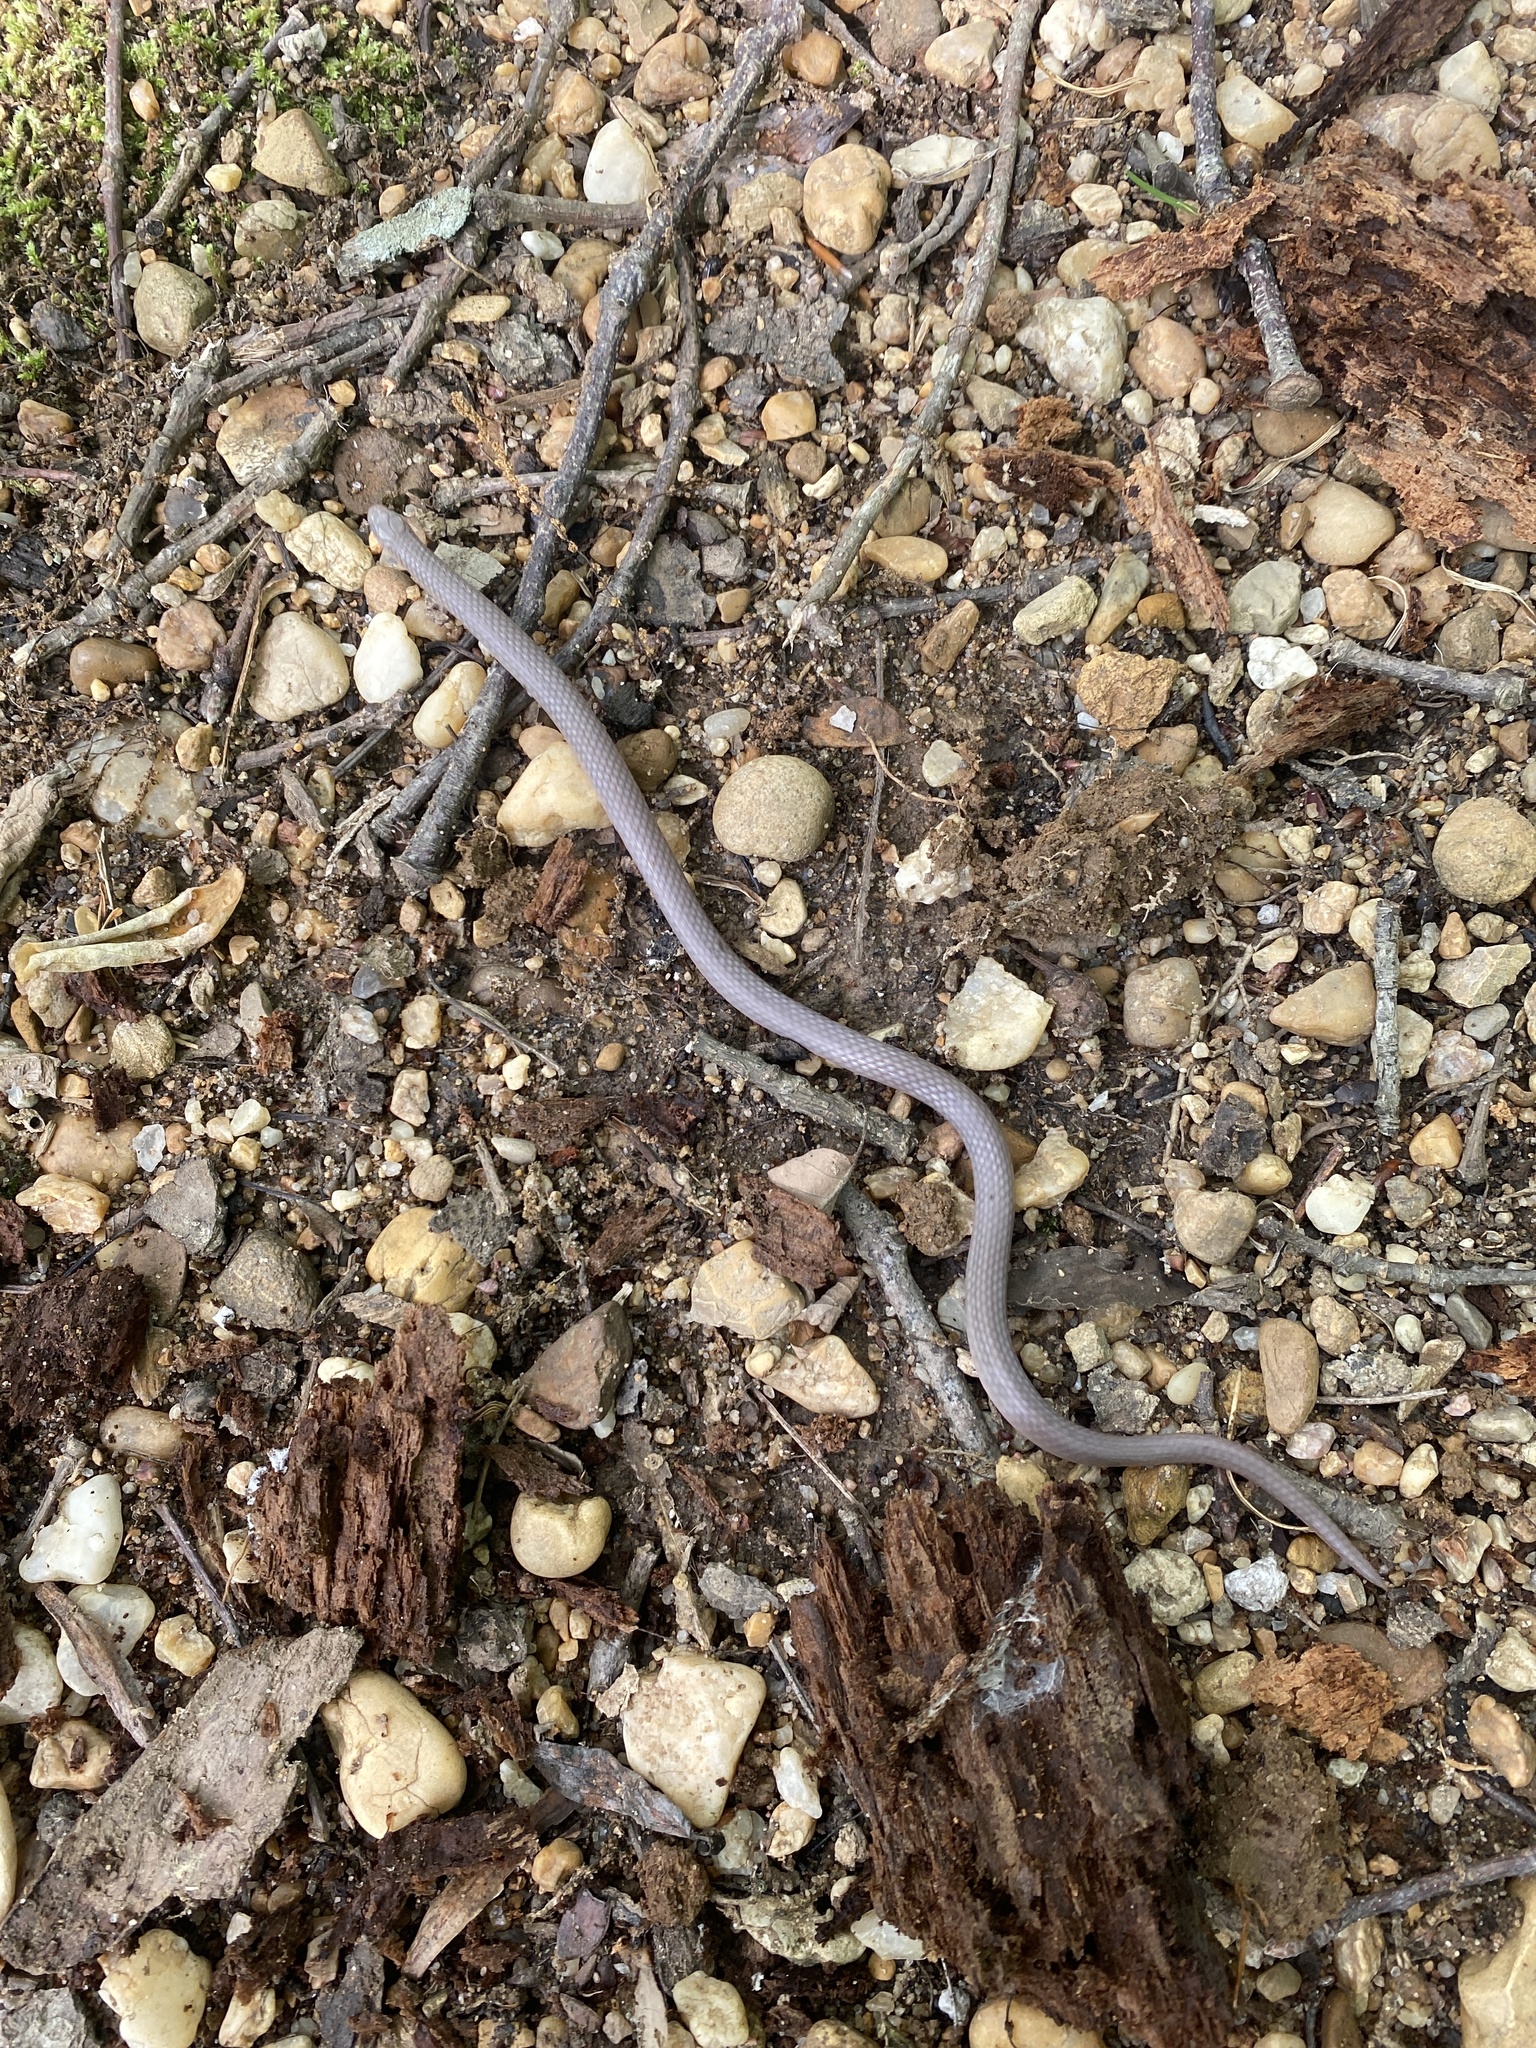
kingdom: Animalia
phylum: Chordata
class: Squamata
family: Colubridae
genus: Carphophis
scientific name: Carphophis amoenus
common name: Eastern worm snake
